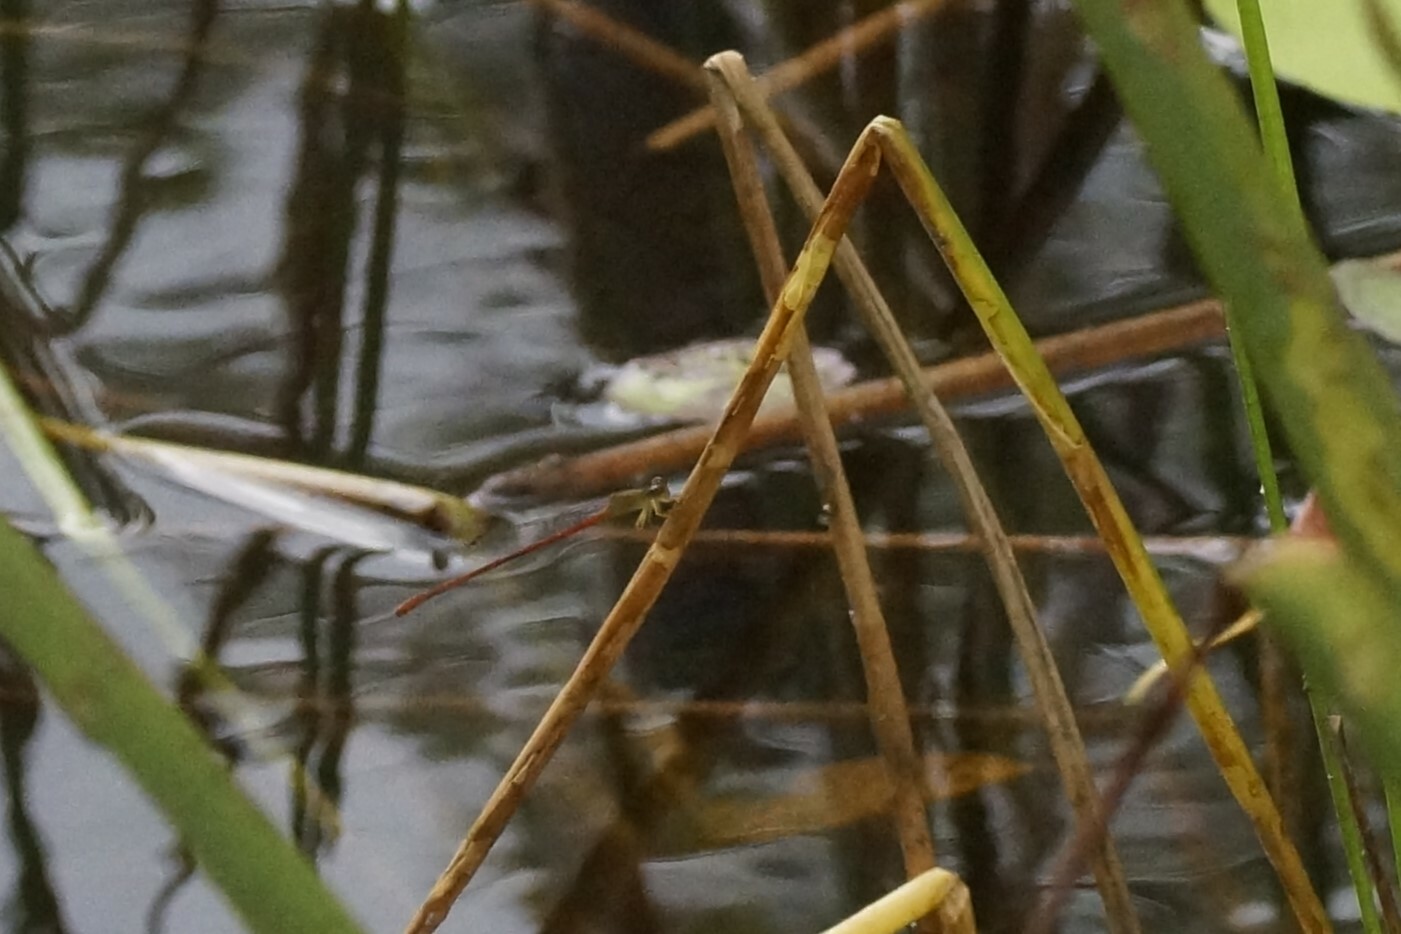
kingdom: Animalia
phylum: Arthropoda
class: Insecta
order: Odonata
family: Coenagrionidae
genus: Ceriagrion
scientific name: Ceriagrion aeruginosum
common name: Redtail
